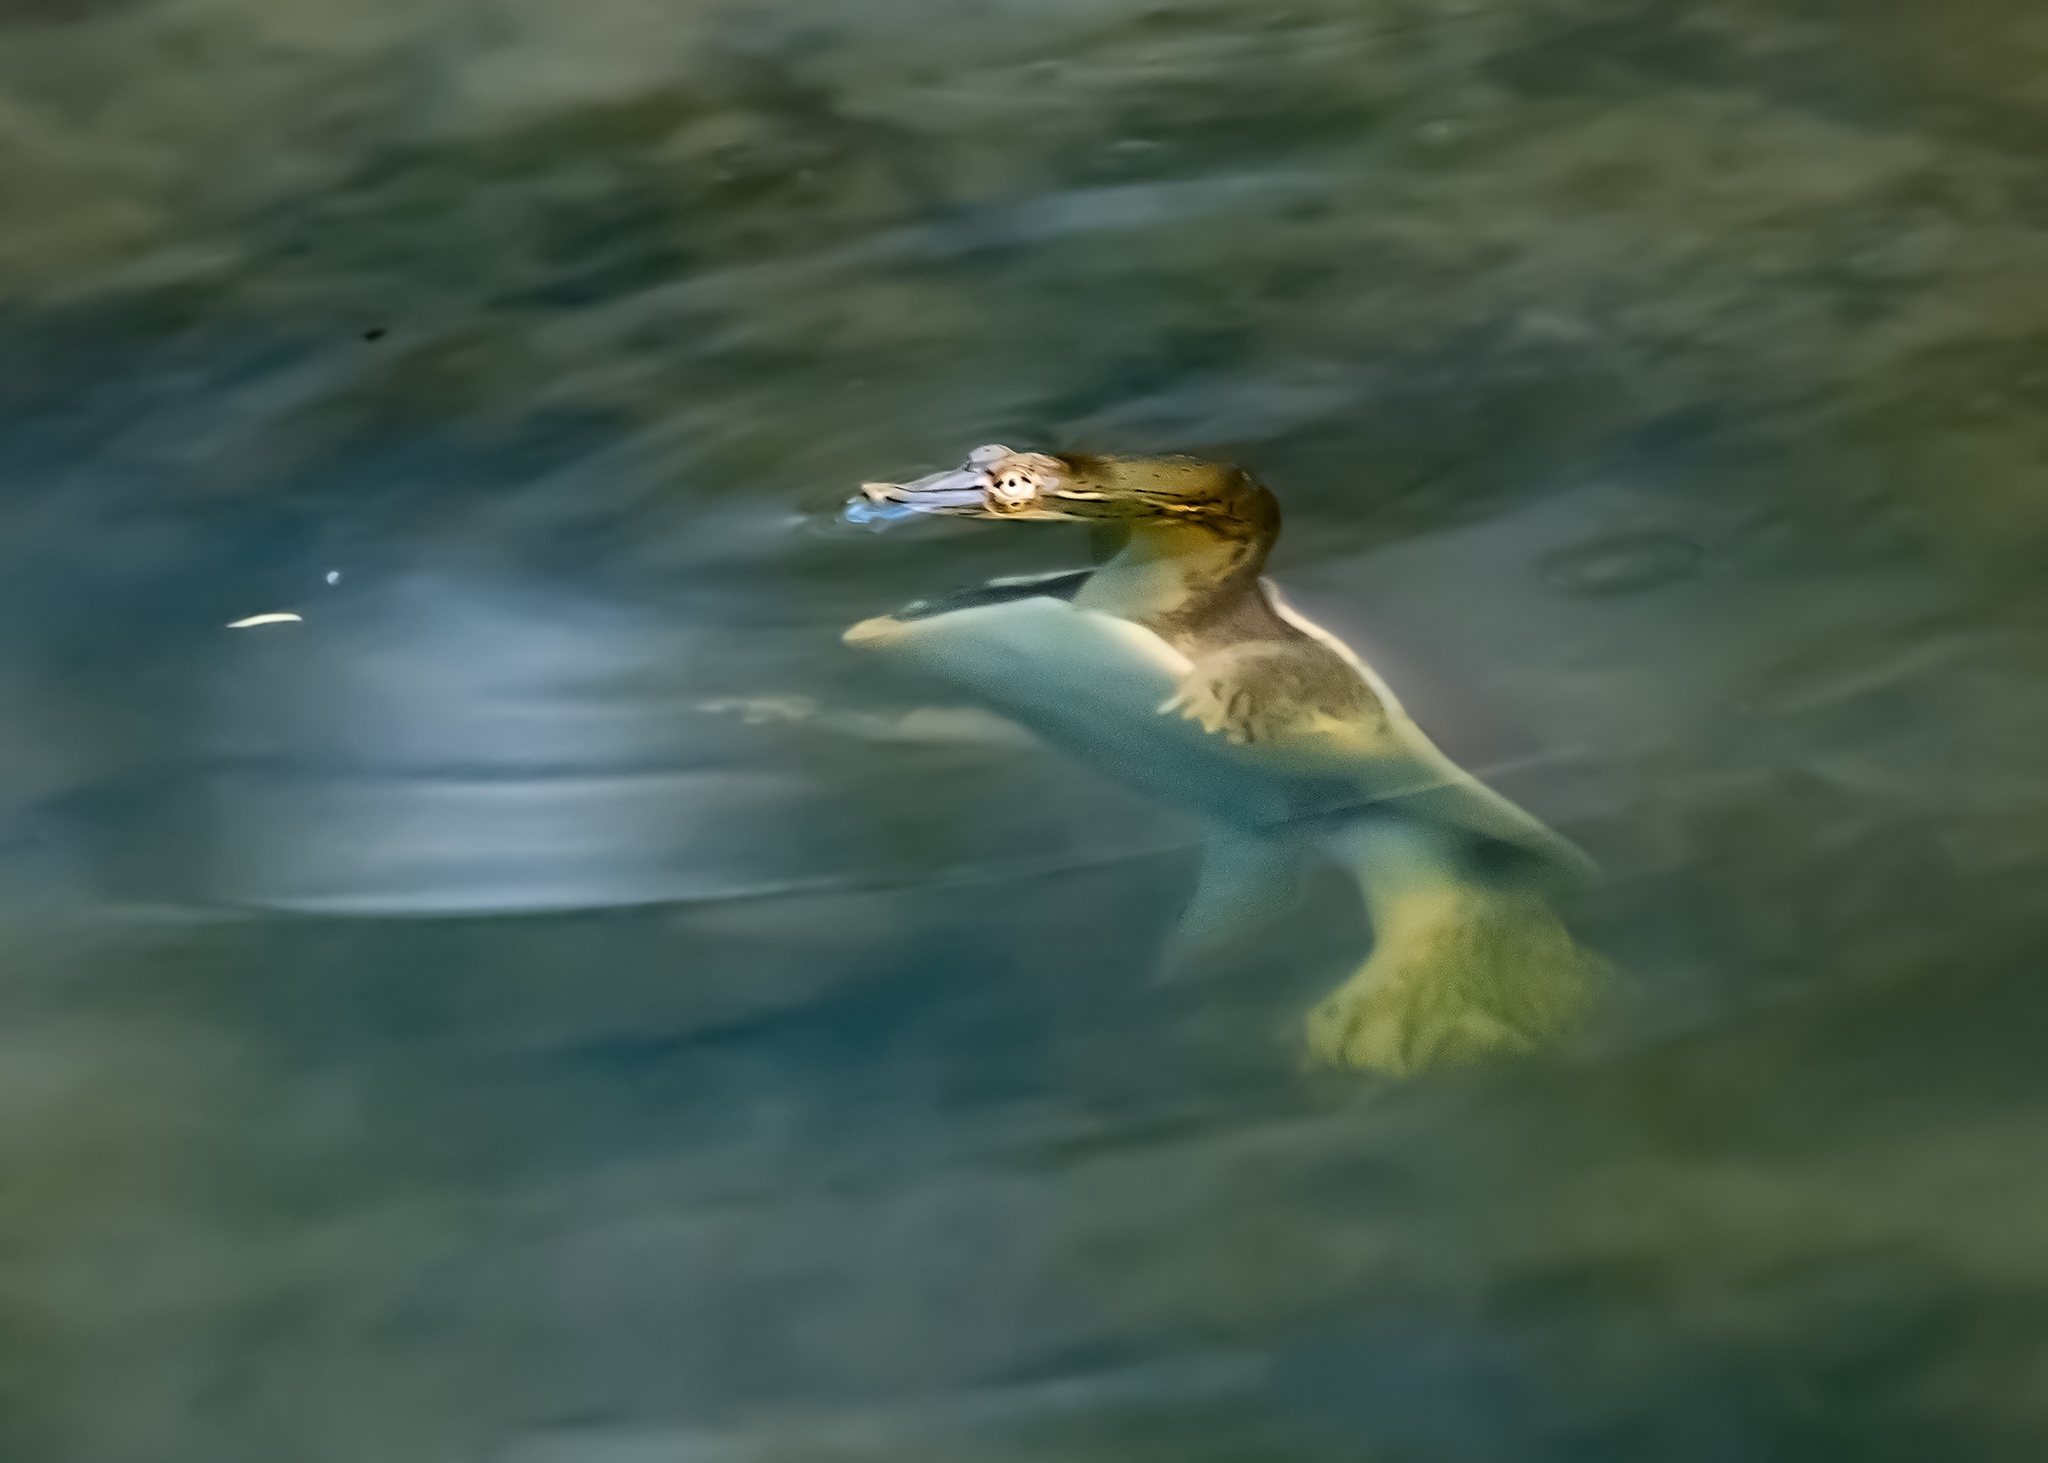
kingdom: Animalia
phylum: Chordata
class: Testudines
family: Trionychidae
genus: Apalone
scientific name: Apalone spinifera
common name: Spiny softshell turtle
